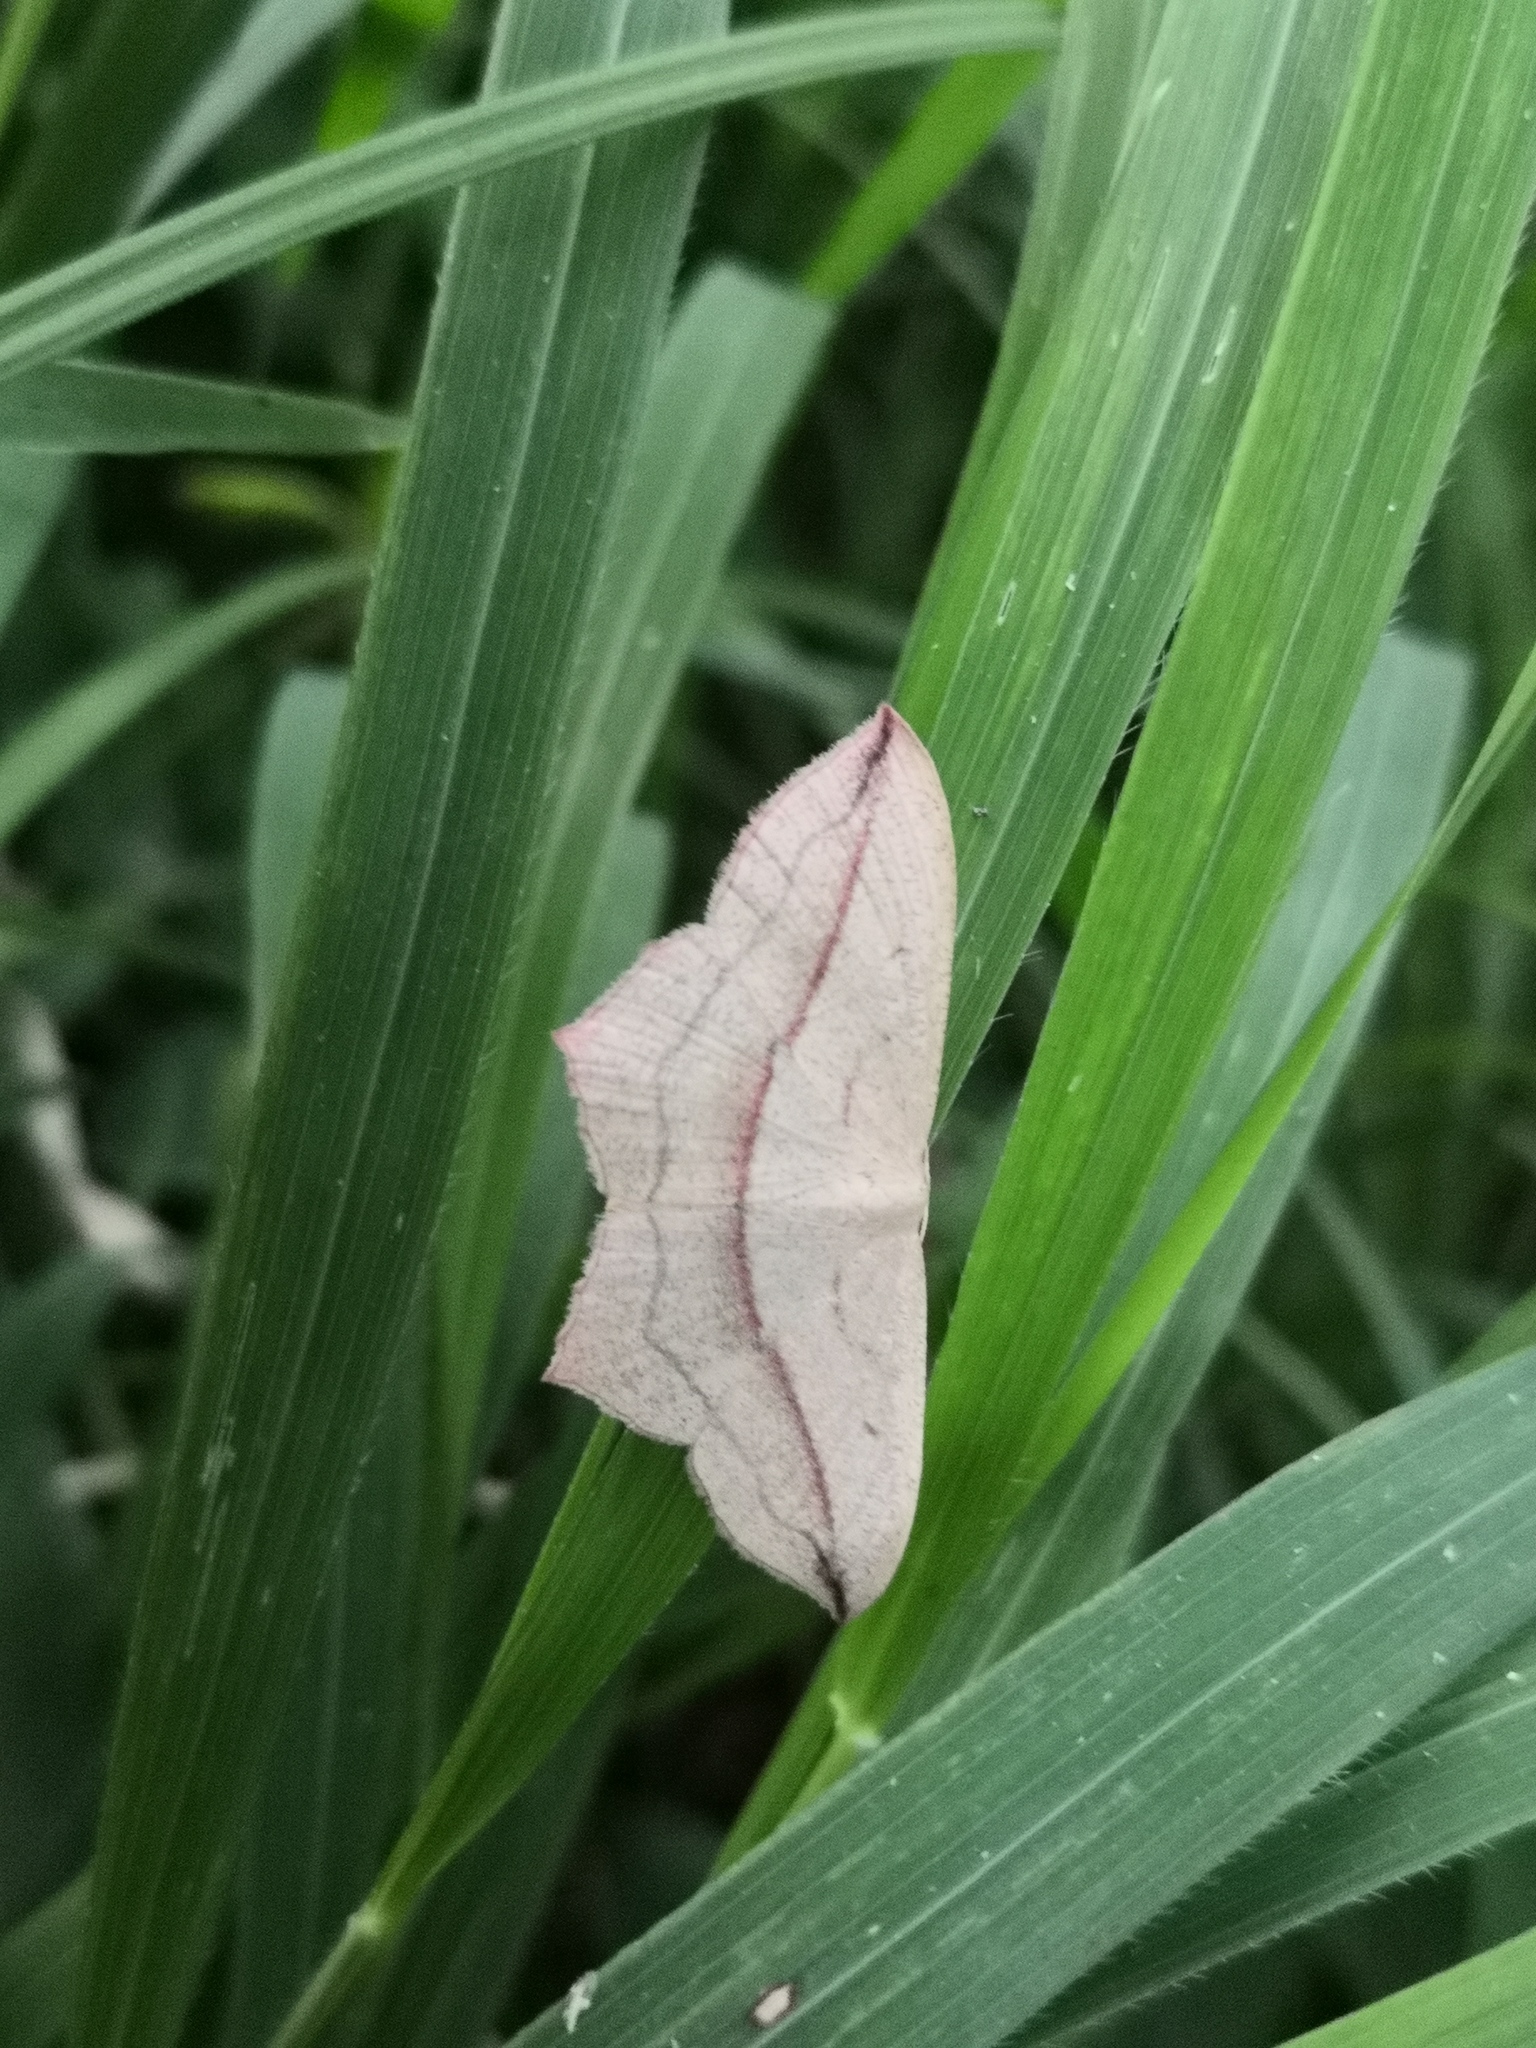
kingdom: Animalia
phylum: Arthropoda
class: Insecta
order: Lepidoptera
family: Geometridae
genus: Timandra
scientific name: Timandra comae
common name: Blood-vein
